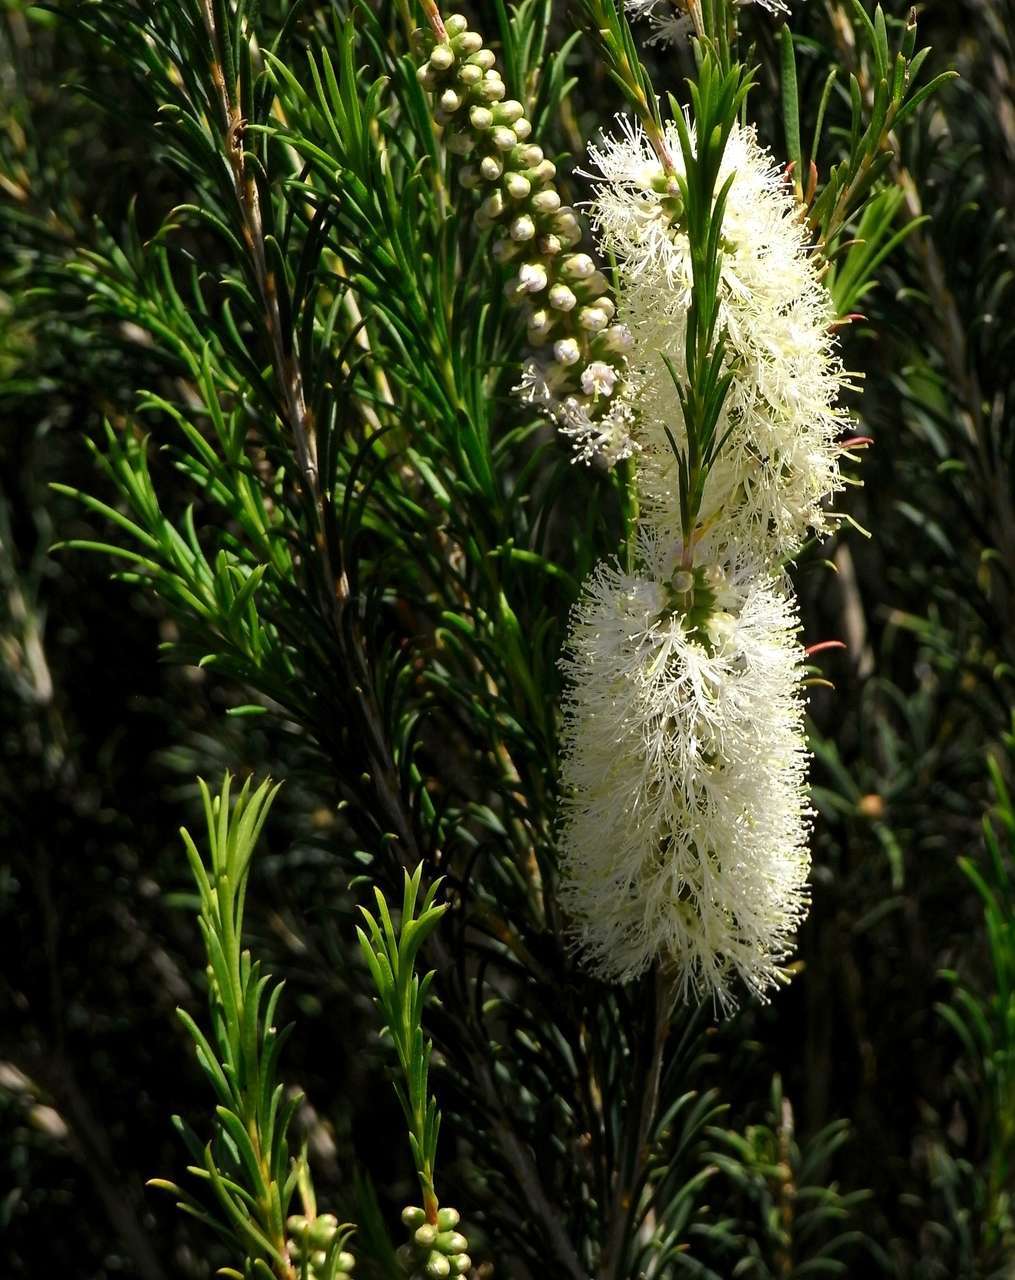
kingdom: Plantae
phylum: Tracheophyta
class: Magnoliopsida
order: Myrtales
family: Myrtaceae
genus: Melaleuca
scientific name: Melaleuca armillaris
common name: Bracelet honey myrtle
